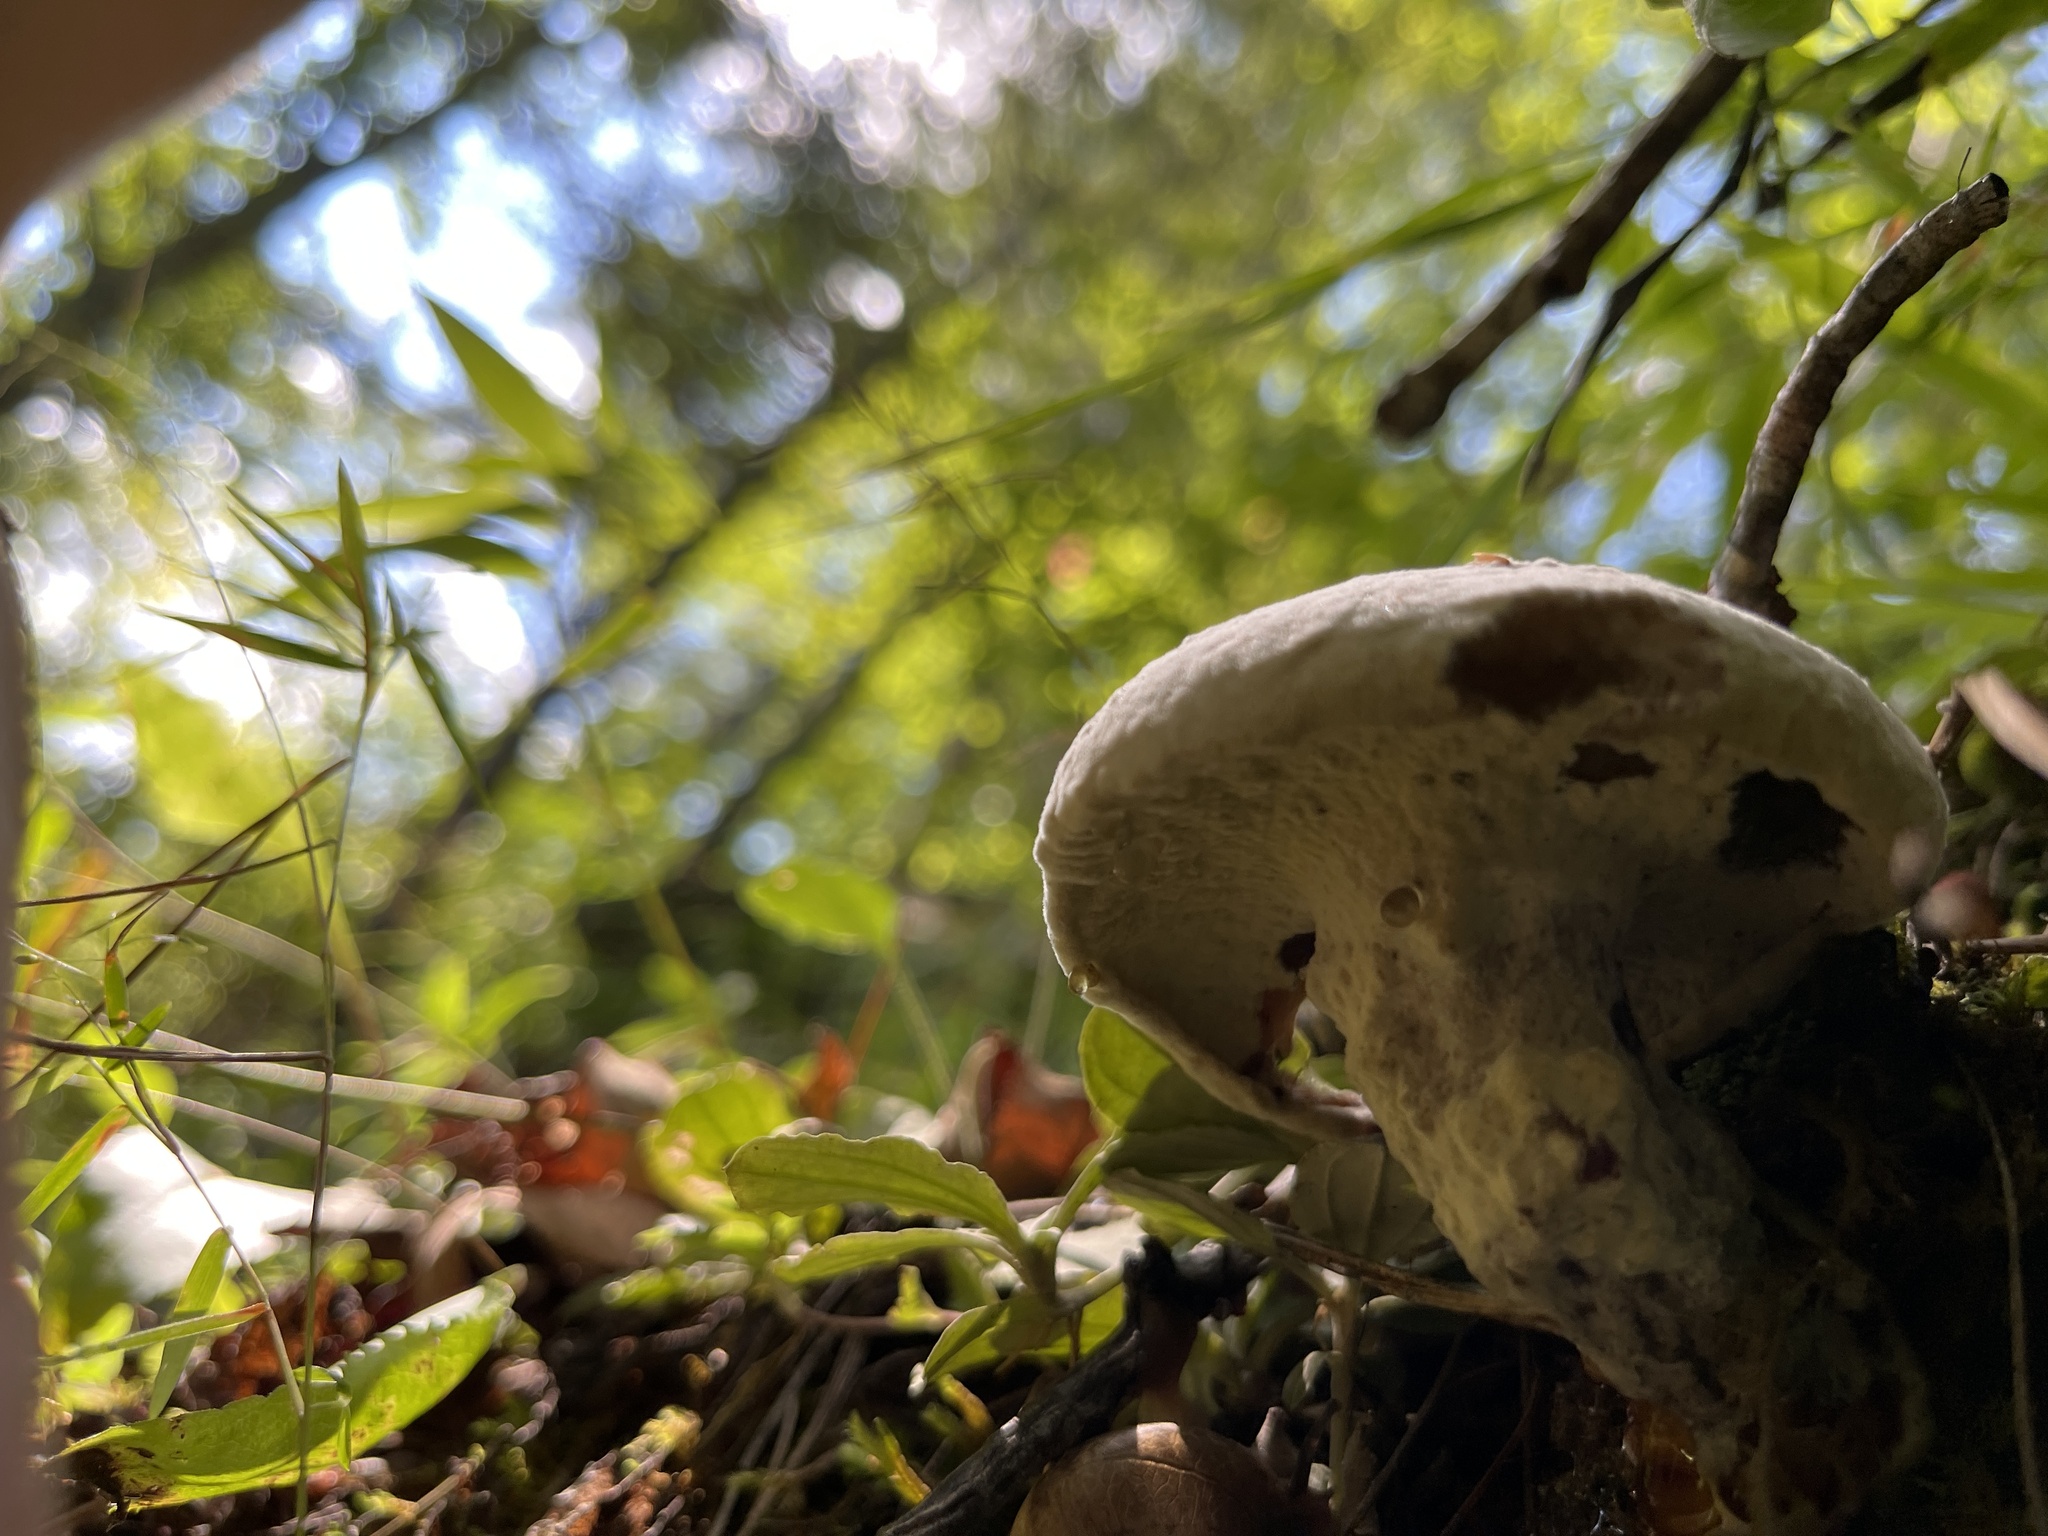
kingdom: Fungi
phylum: Ascomycota
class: Sordariomycetes
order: Hypocreales
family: Hypocreaceae
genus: Hypomyces
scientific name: Hypomyces chrysospermus
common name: Bolete mould
